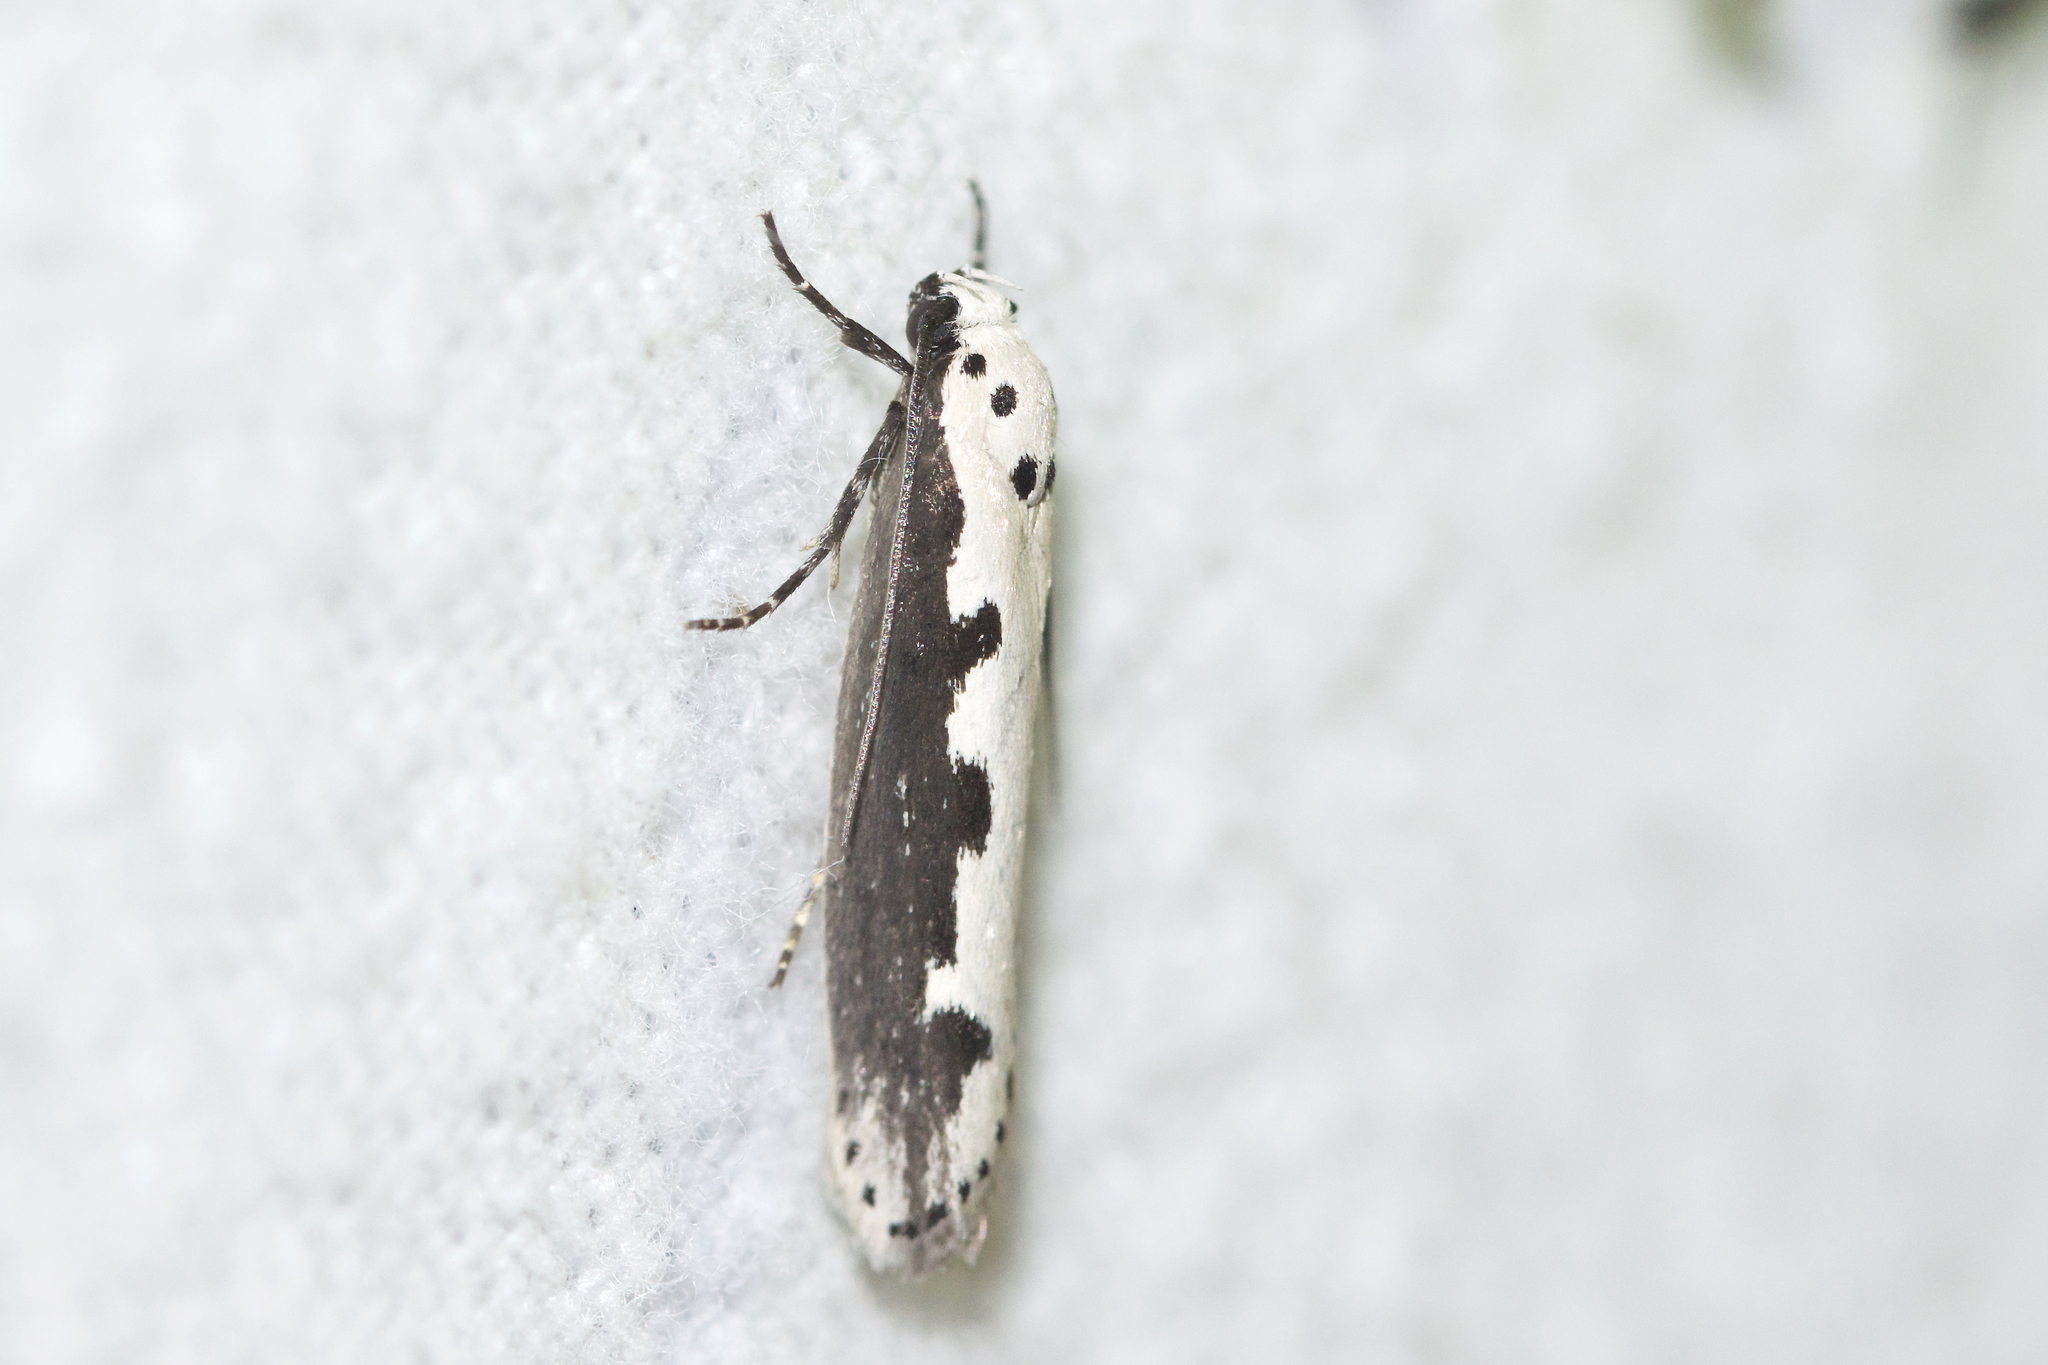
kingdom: Animalia
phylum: Arthropoda
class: Insecta
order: Lepidoptera
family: Ethmiidae
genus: Ethmia
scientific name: Ethmia bipunctella
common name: Bordered ermel
